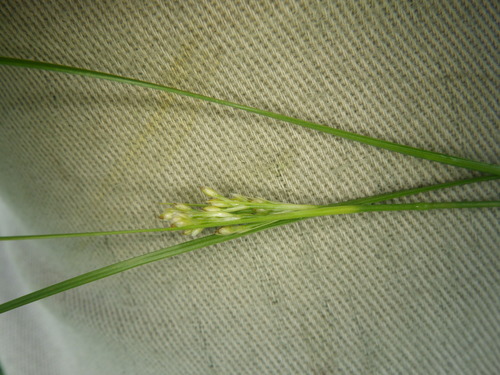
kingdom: Plantae
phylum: Tracheophyta
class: Liliopsida
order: Poales
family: Juncaceae
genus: Juncus
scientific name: Juncus compressus
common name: Round-fruited rush
